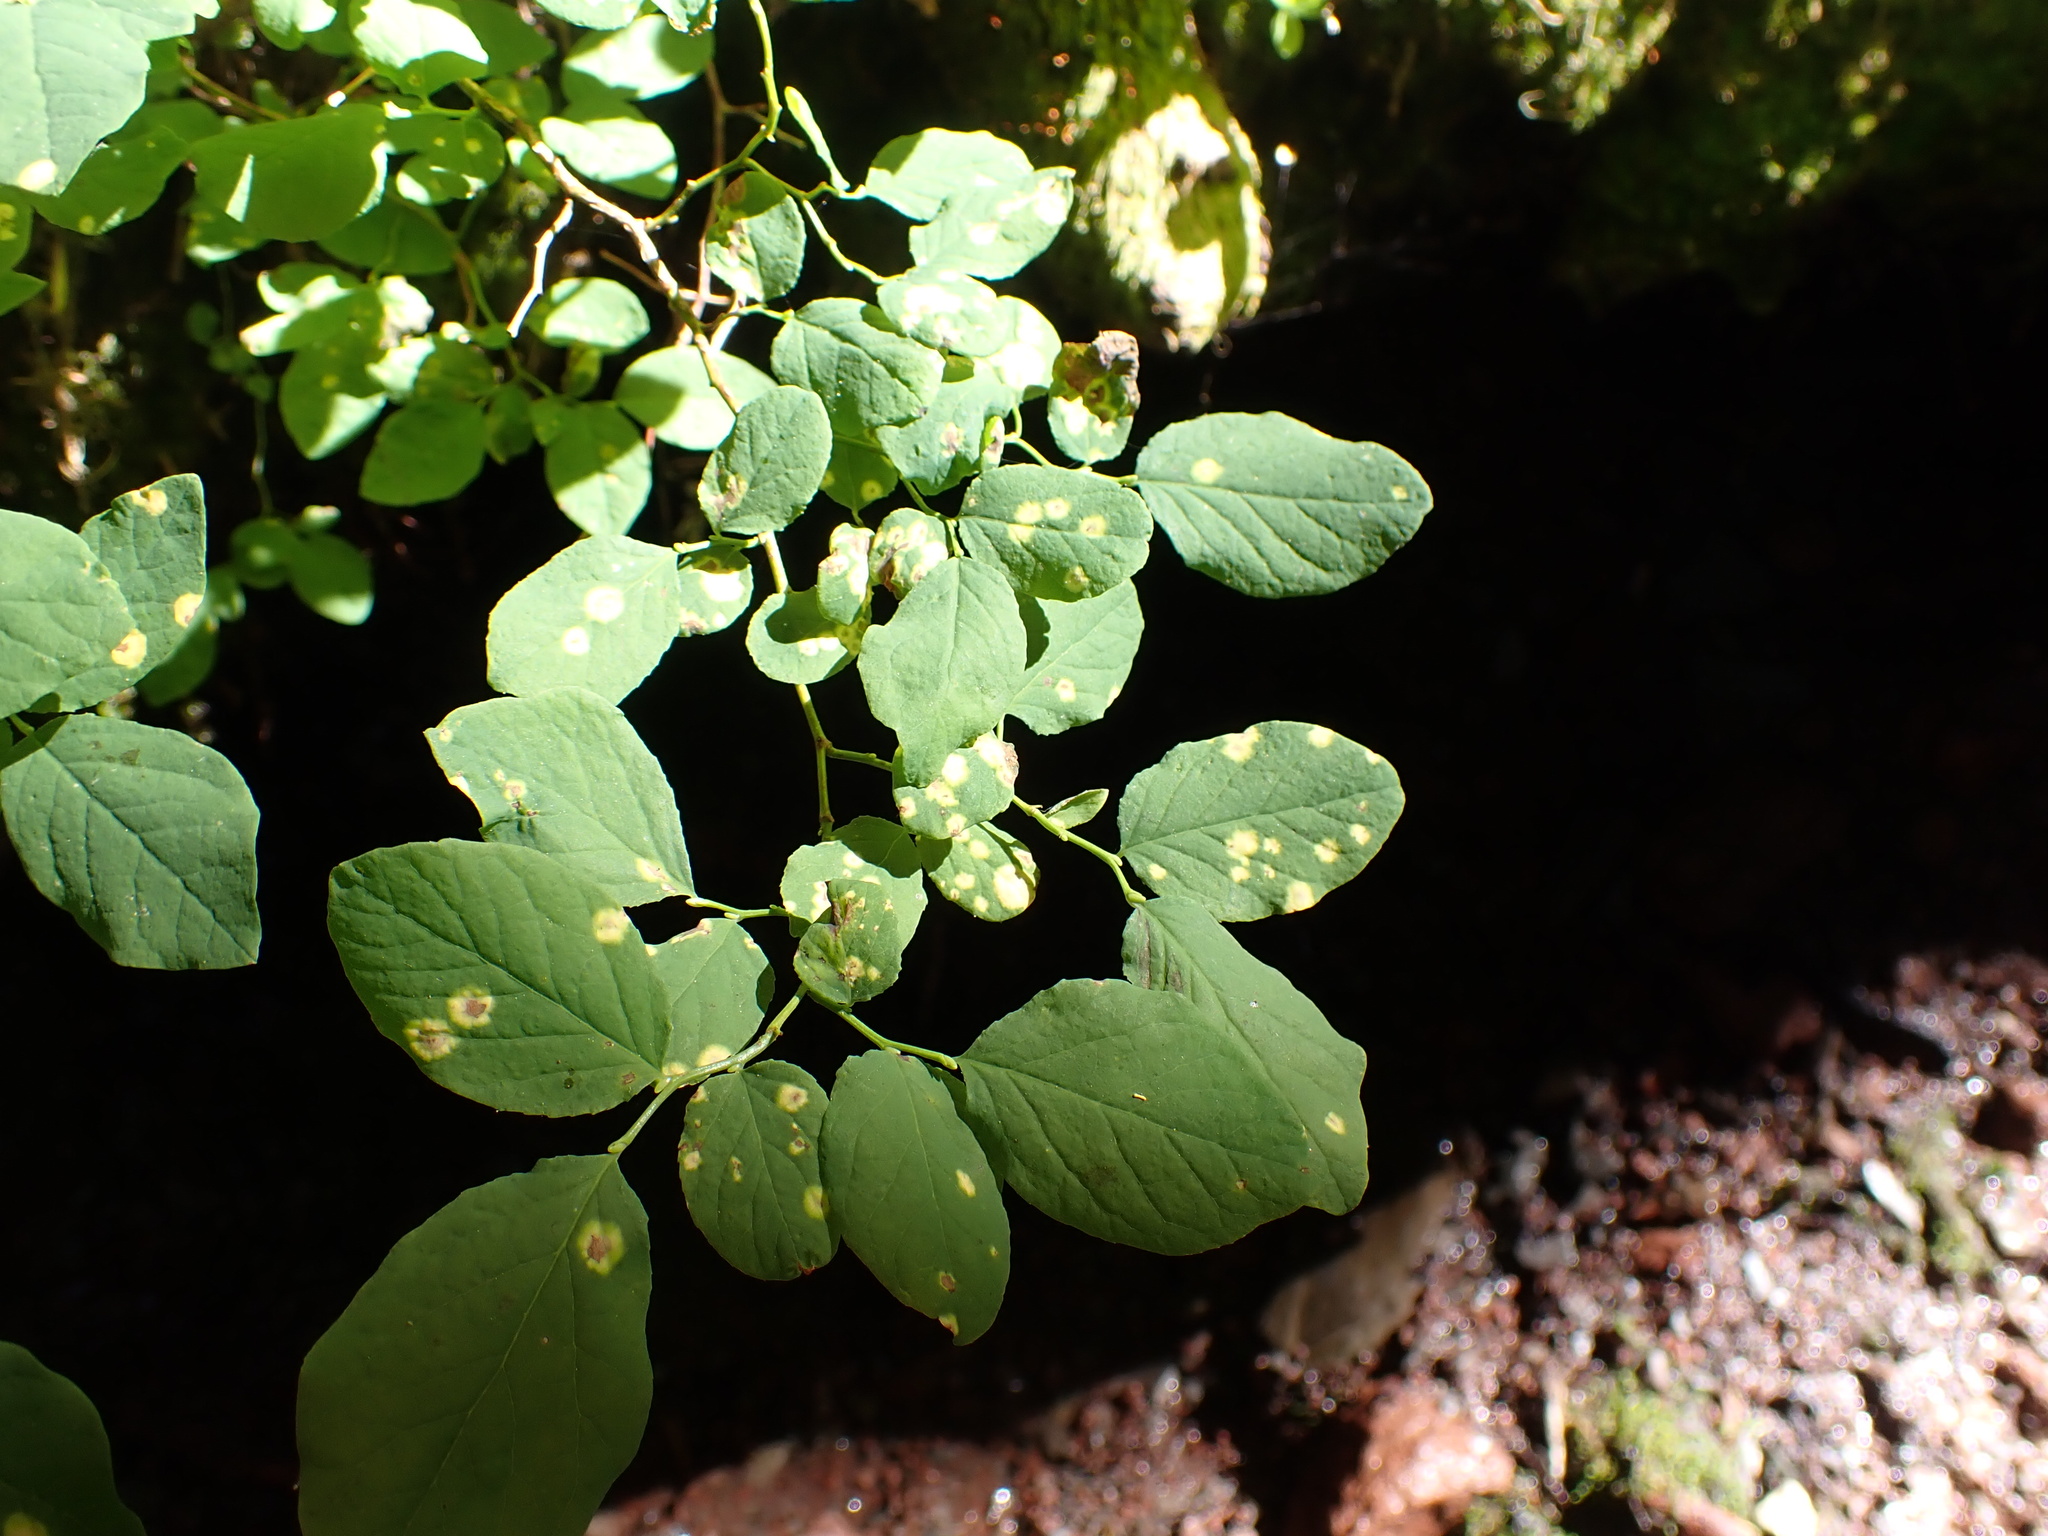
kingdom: Fungi
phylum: Basidiomycota
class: Exobasidiomycetes
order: Exobasidiales
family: Exobasidiaceae
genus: Exobasidium
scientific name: Exobasidium
